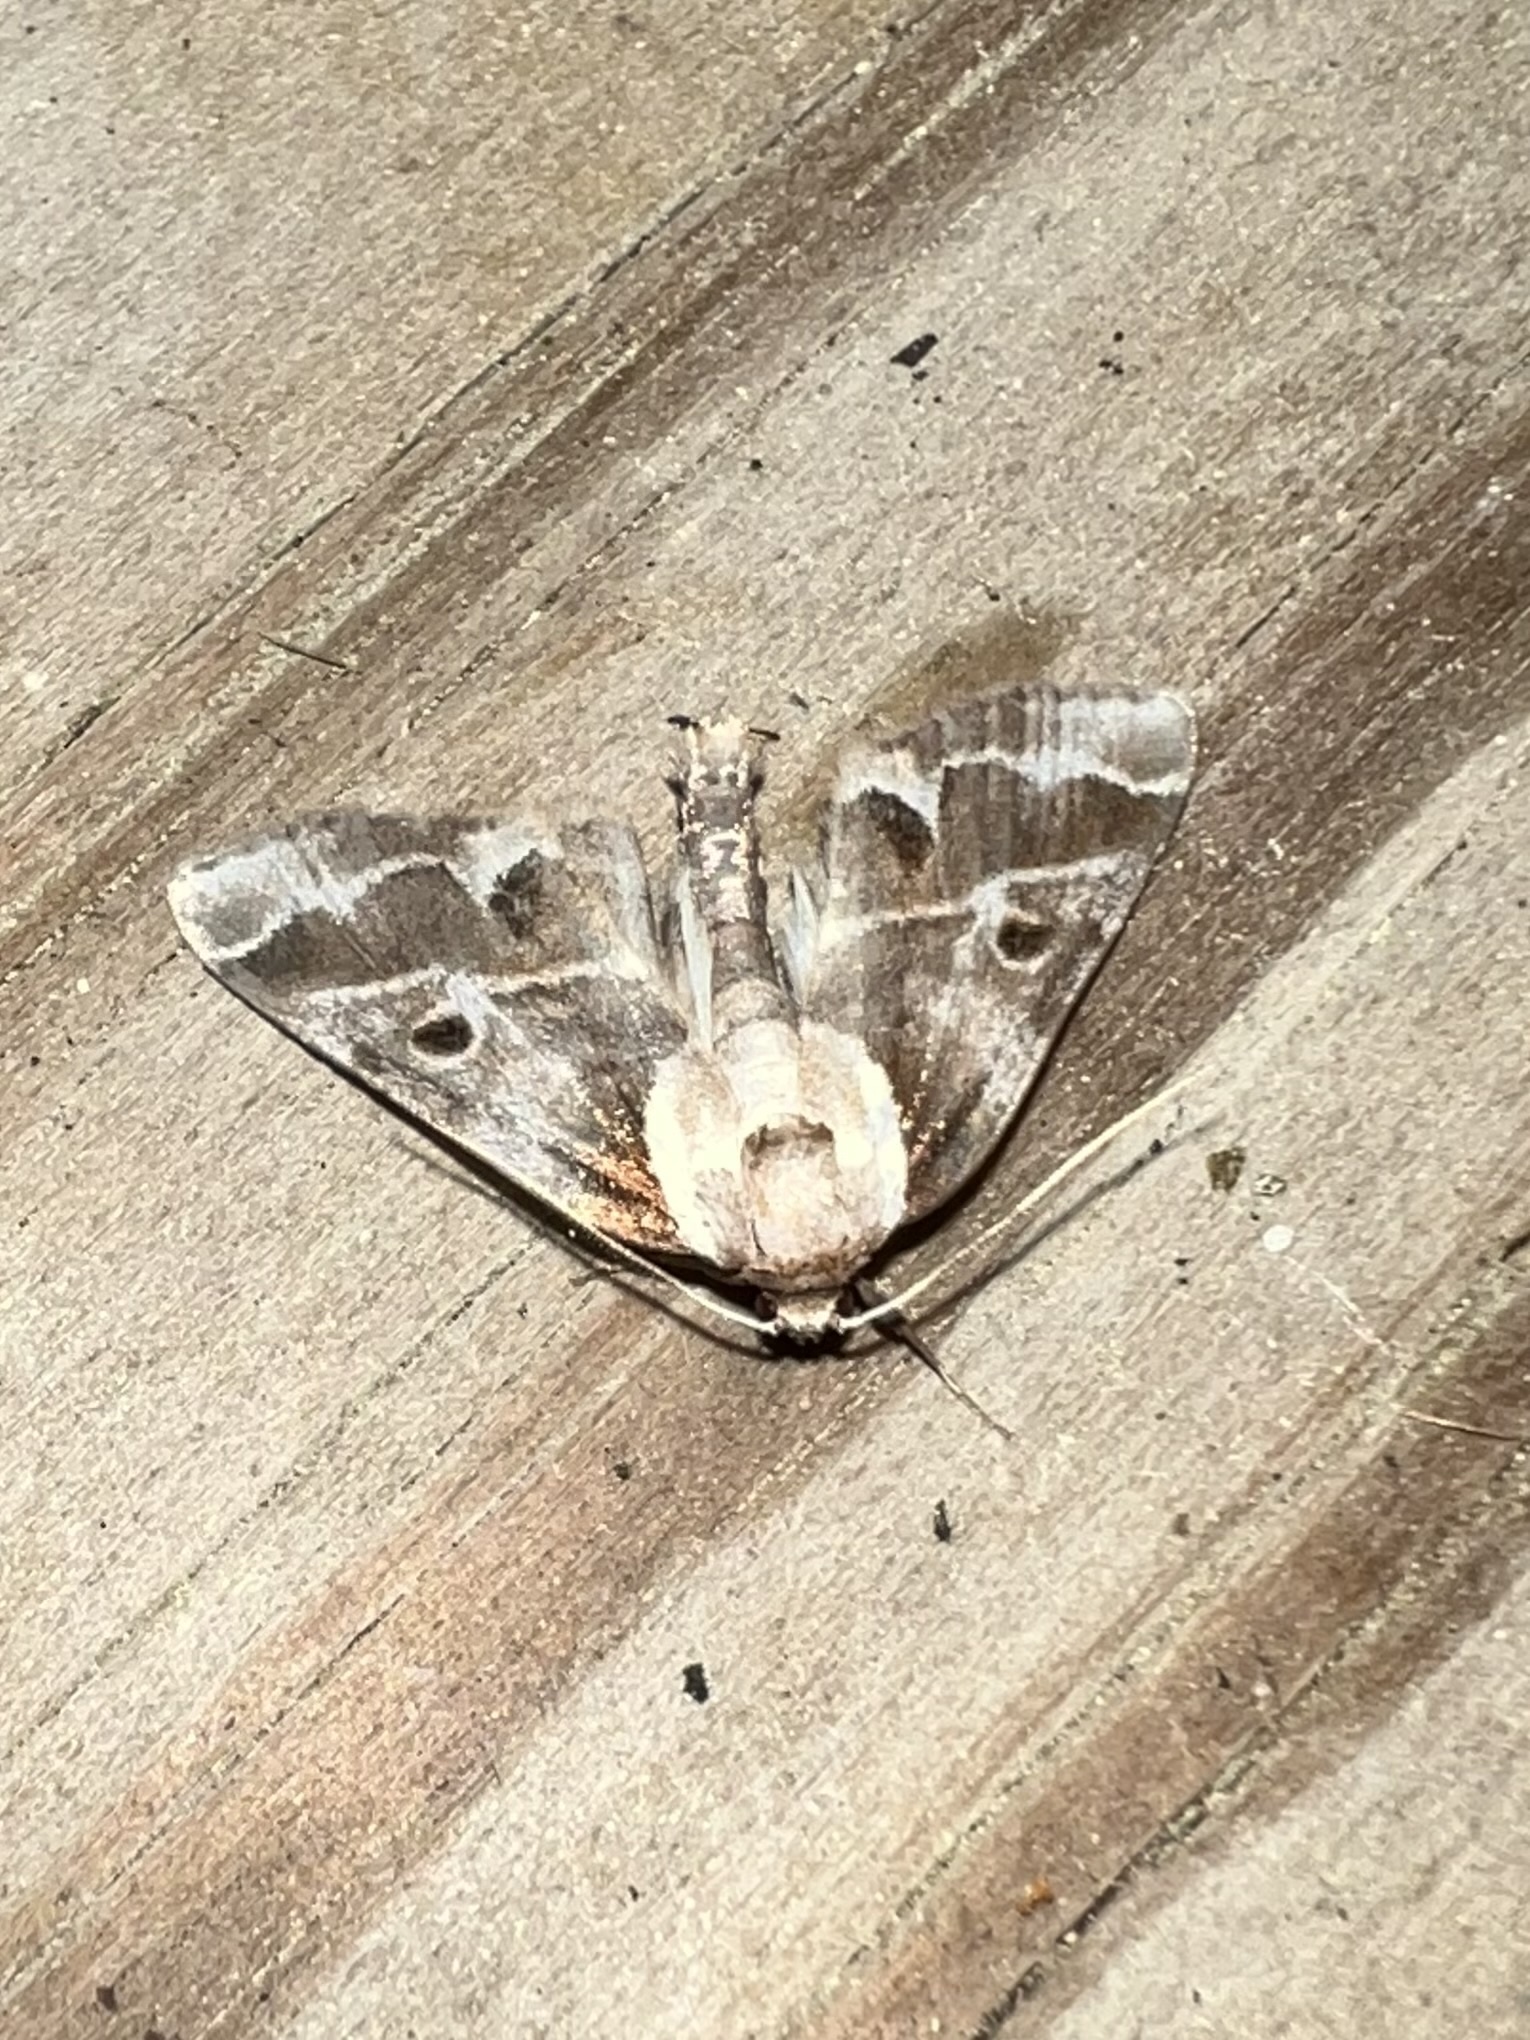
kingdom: Animalia
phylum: Arthropoda
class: Insecta
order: Lepidoptera
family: Nolidae
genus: Baileya
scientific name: Baileya doubledayi
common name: Doubleday's baileya moth
